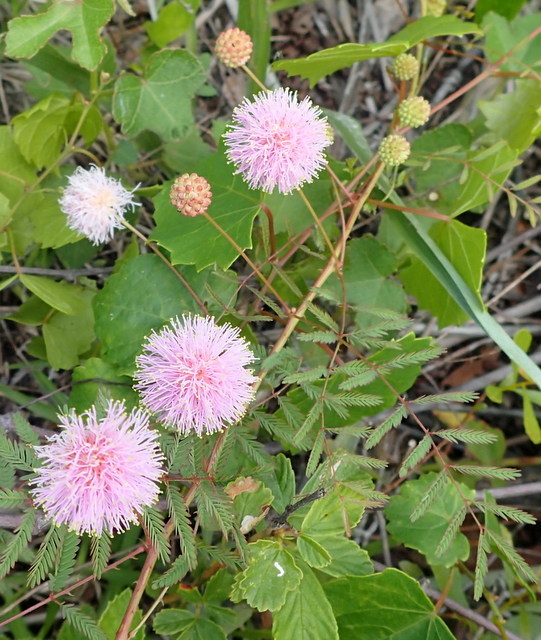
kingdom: Plantae
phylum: Tracheophyta
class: Magnoliopsida
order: Fabales
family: Fabaceae
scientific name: Fabaceae
